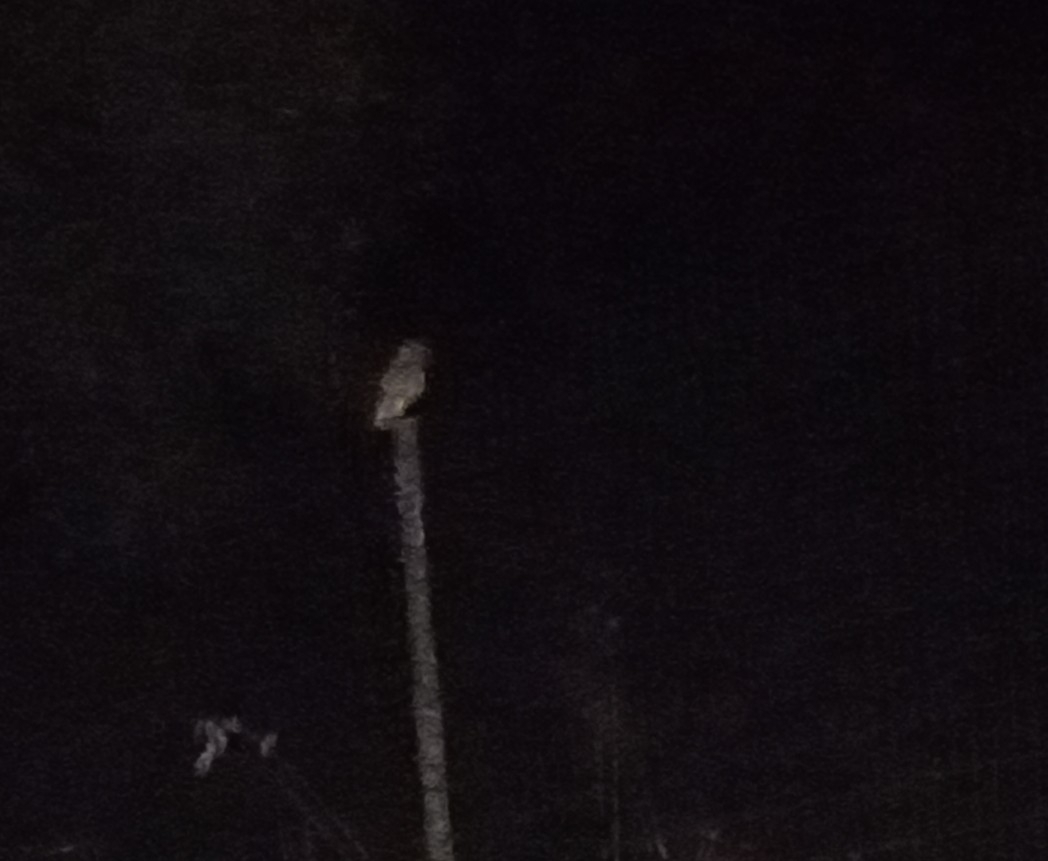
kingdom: Animalia
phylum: Chordata
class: Aves
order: Strigiformes
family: Strigidae
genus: Athene
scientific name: Athene noctua
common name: Little owl
